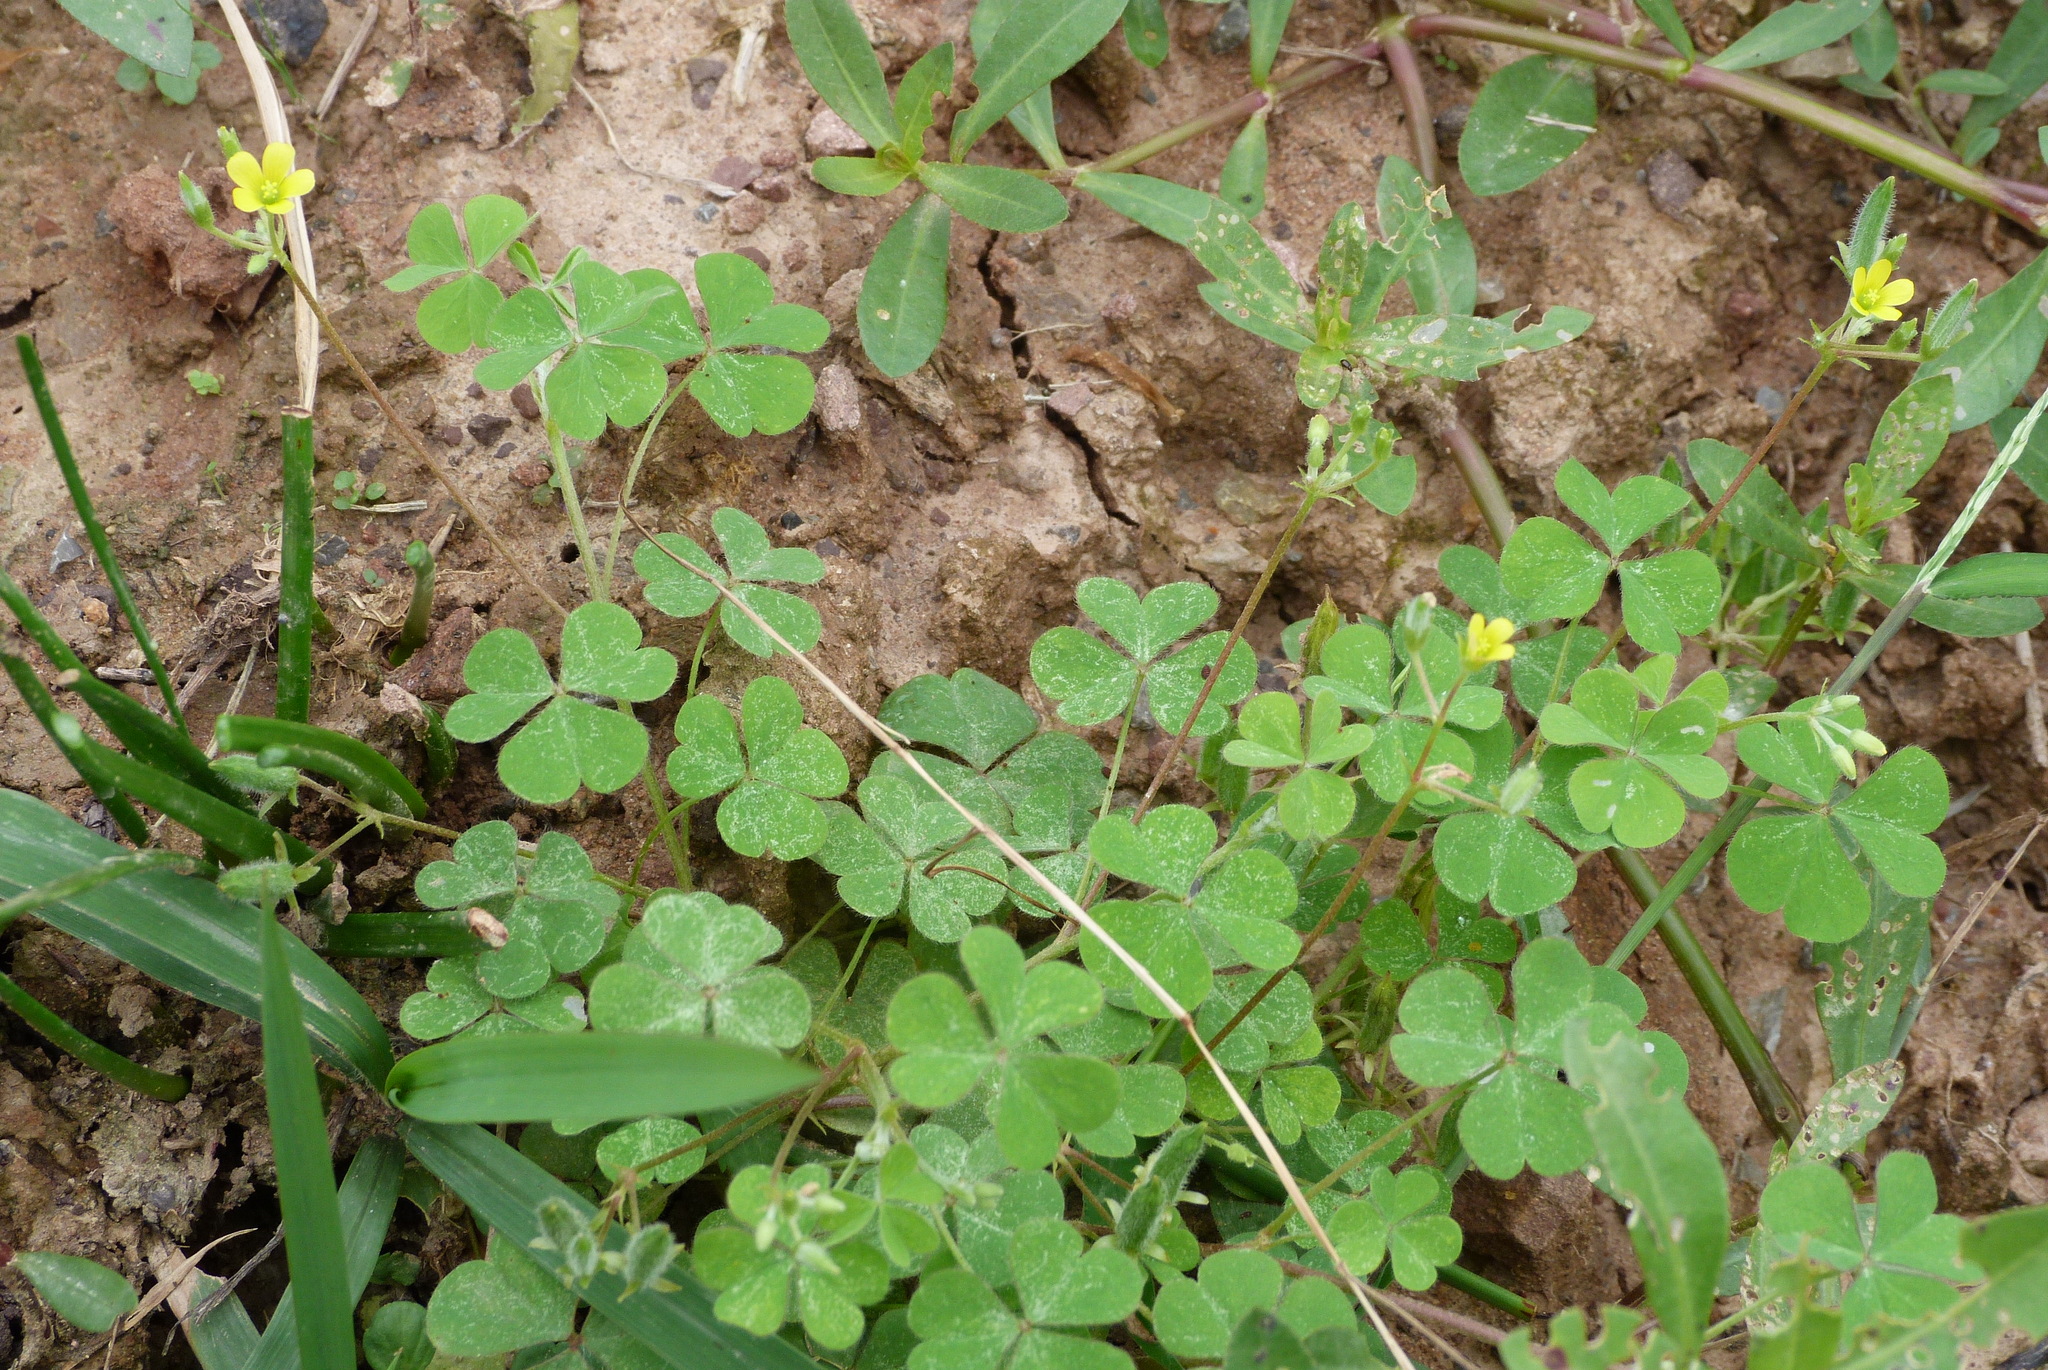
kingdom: Plantae
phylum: Tracheophyta
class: Magnoliopsida
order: Oxalidales
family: Oxalidaceae
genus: Oxalis
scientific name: Oxalis corniculata
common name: Procumbent yellow-sorrel
